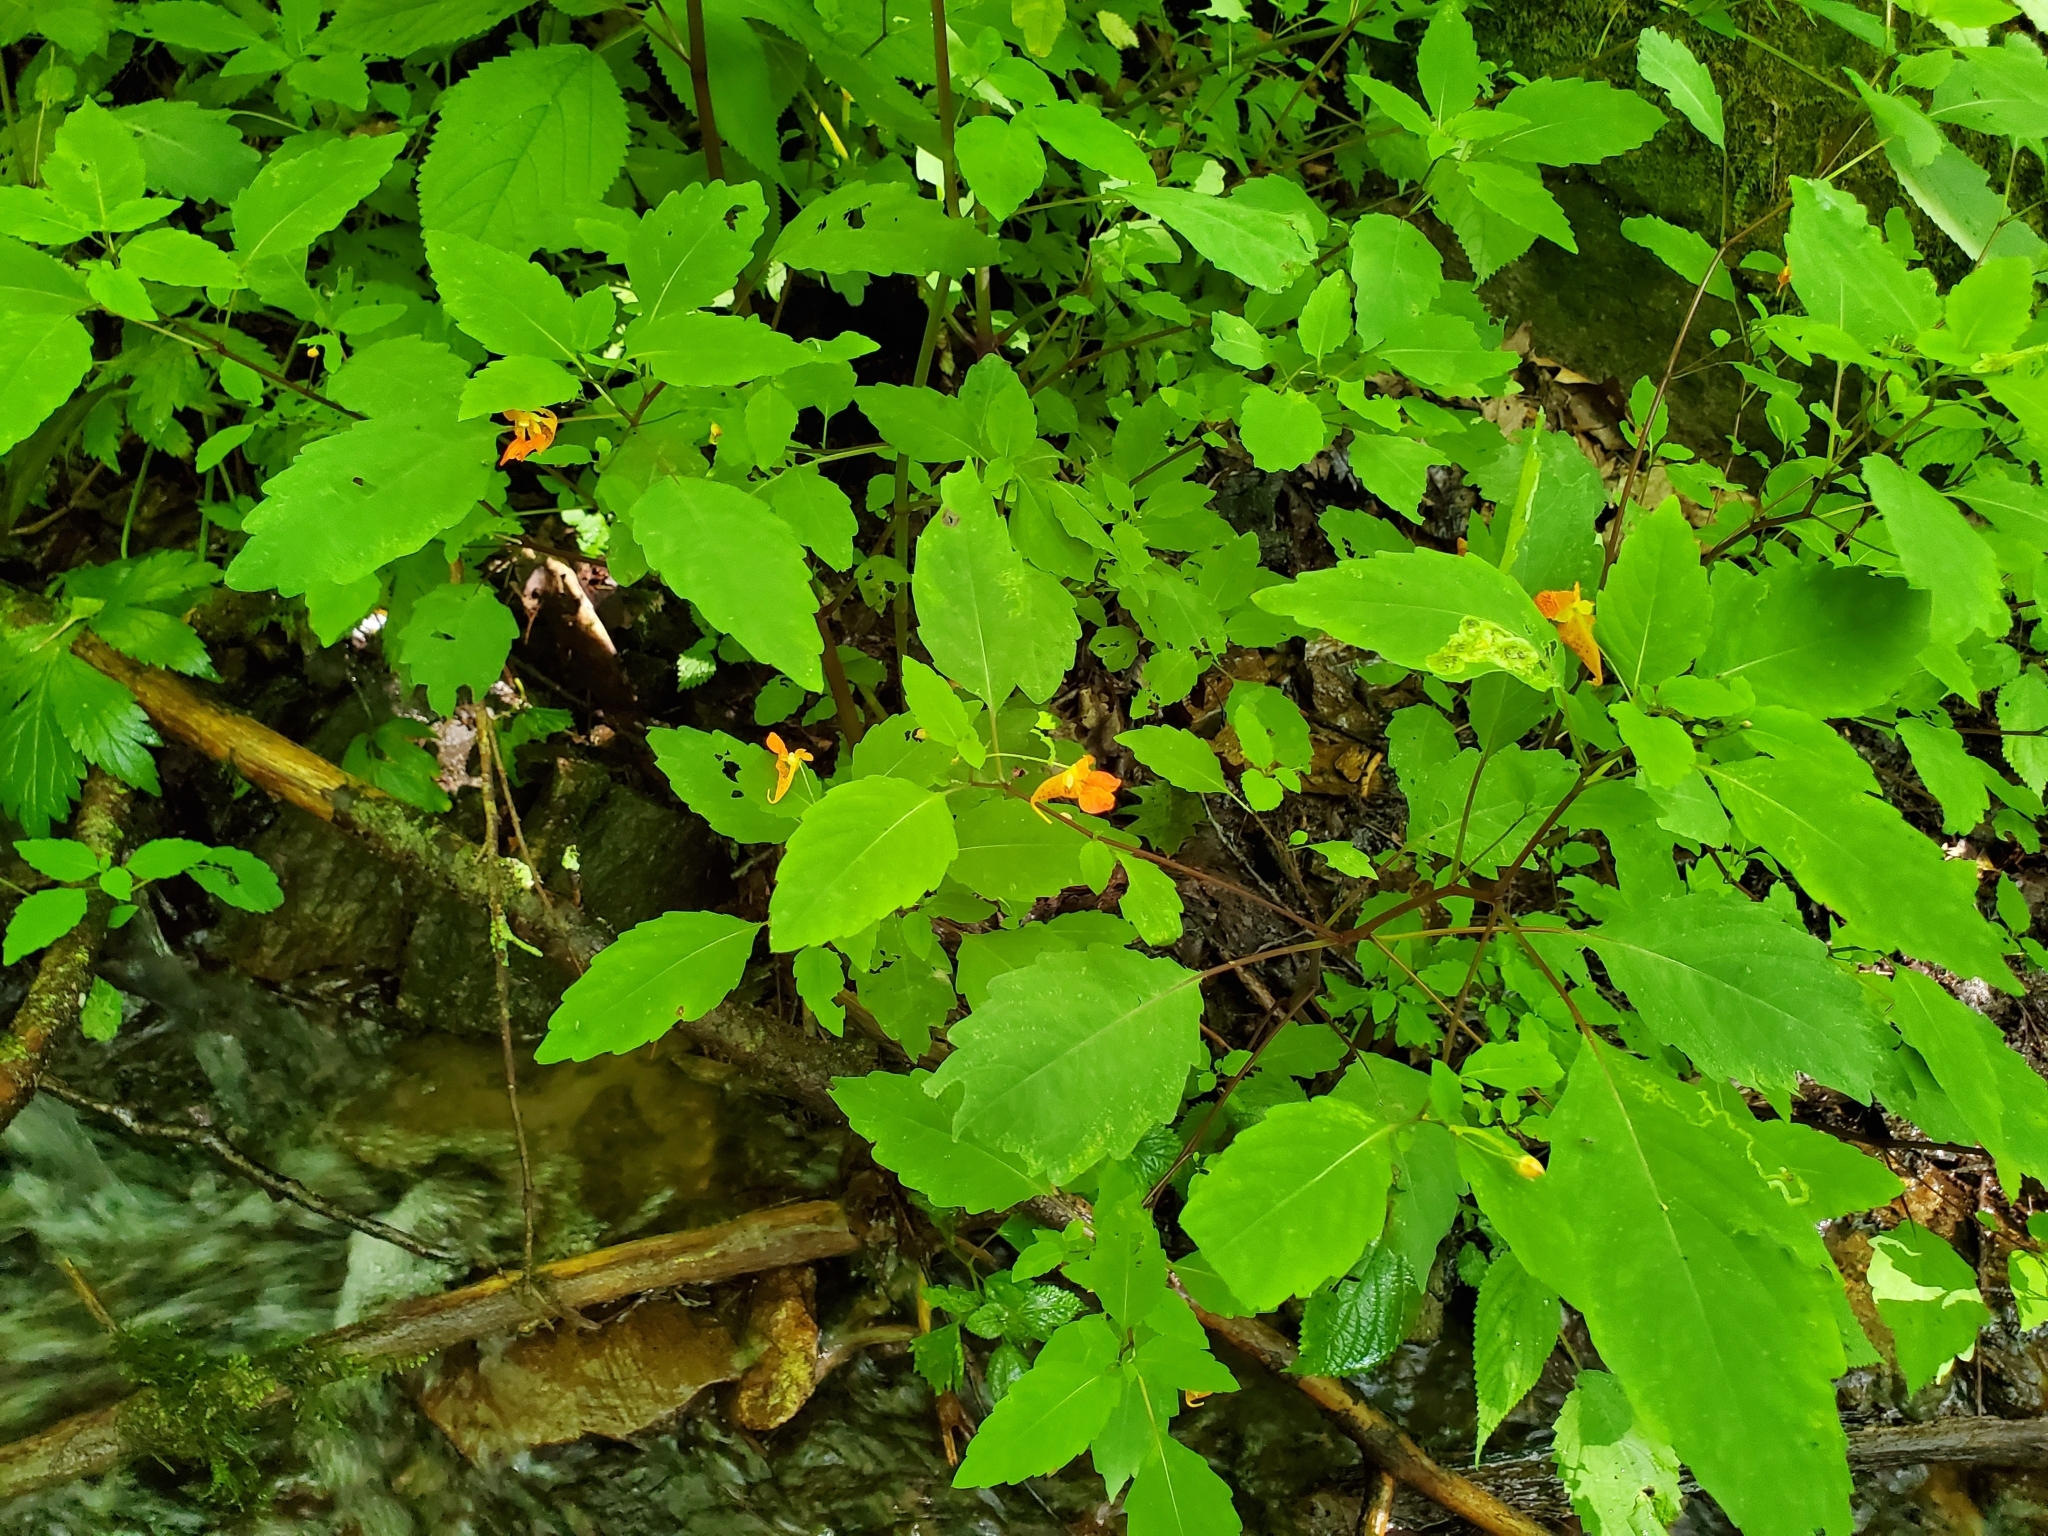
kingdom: Plantae
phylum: Tracheophyta
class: Magnoliopsida
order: Ericales
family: Balsaminaceae
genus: Impatiens
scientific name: Impatiens capensis
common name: Orange balsam
